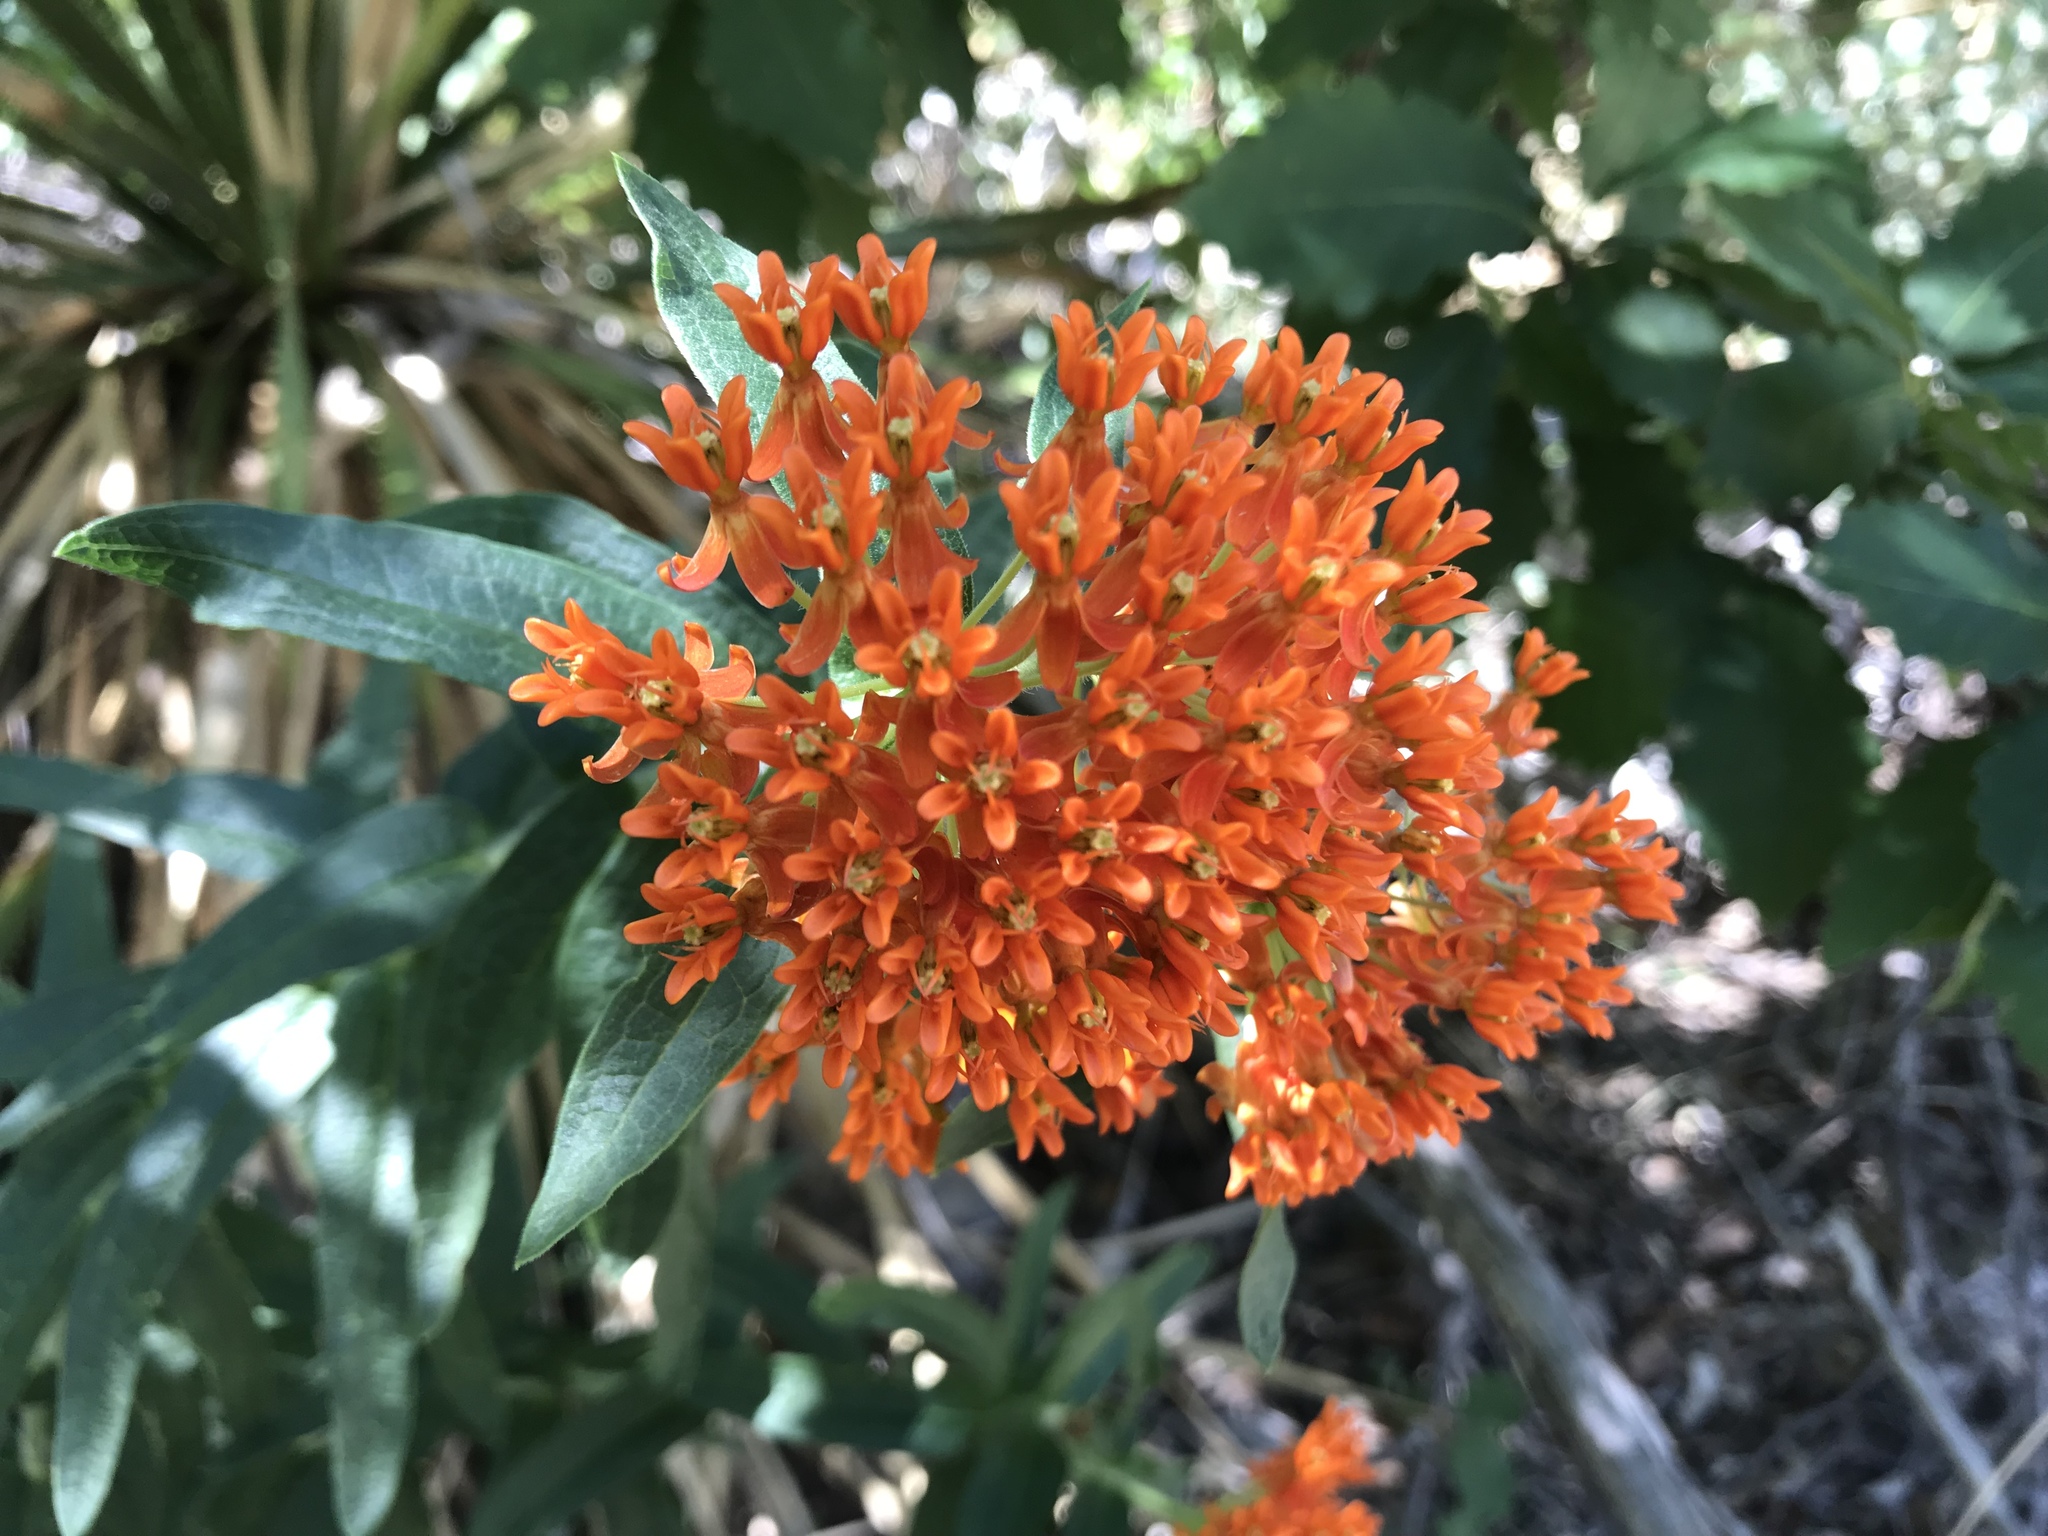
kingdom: Plantae
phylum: Tracheophyta
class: Magnoliopsida
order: Gentianales
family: Apocynaceae
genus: Asclepias
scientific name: Asclepias tuberosa
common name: Butterfly milkweed
